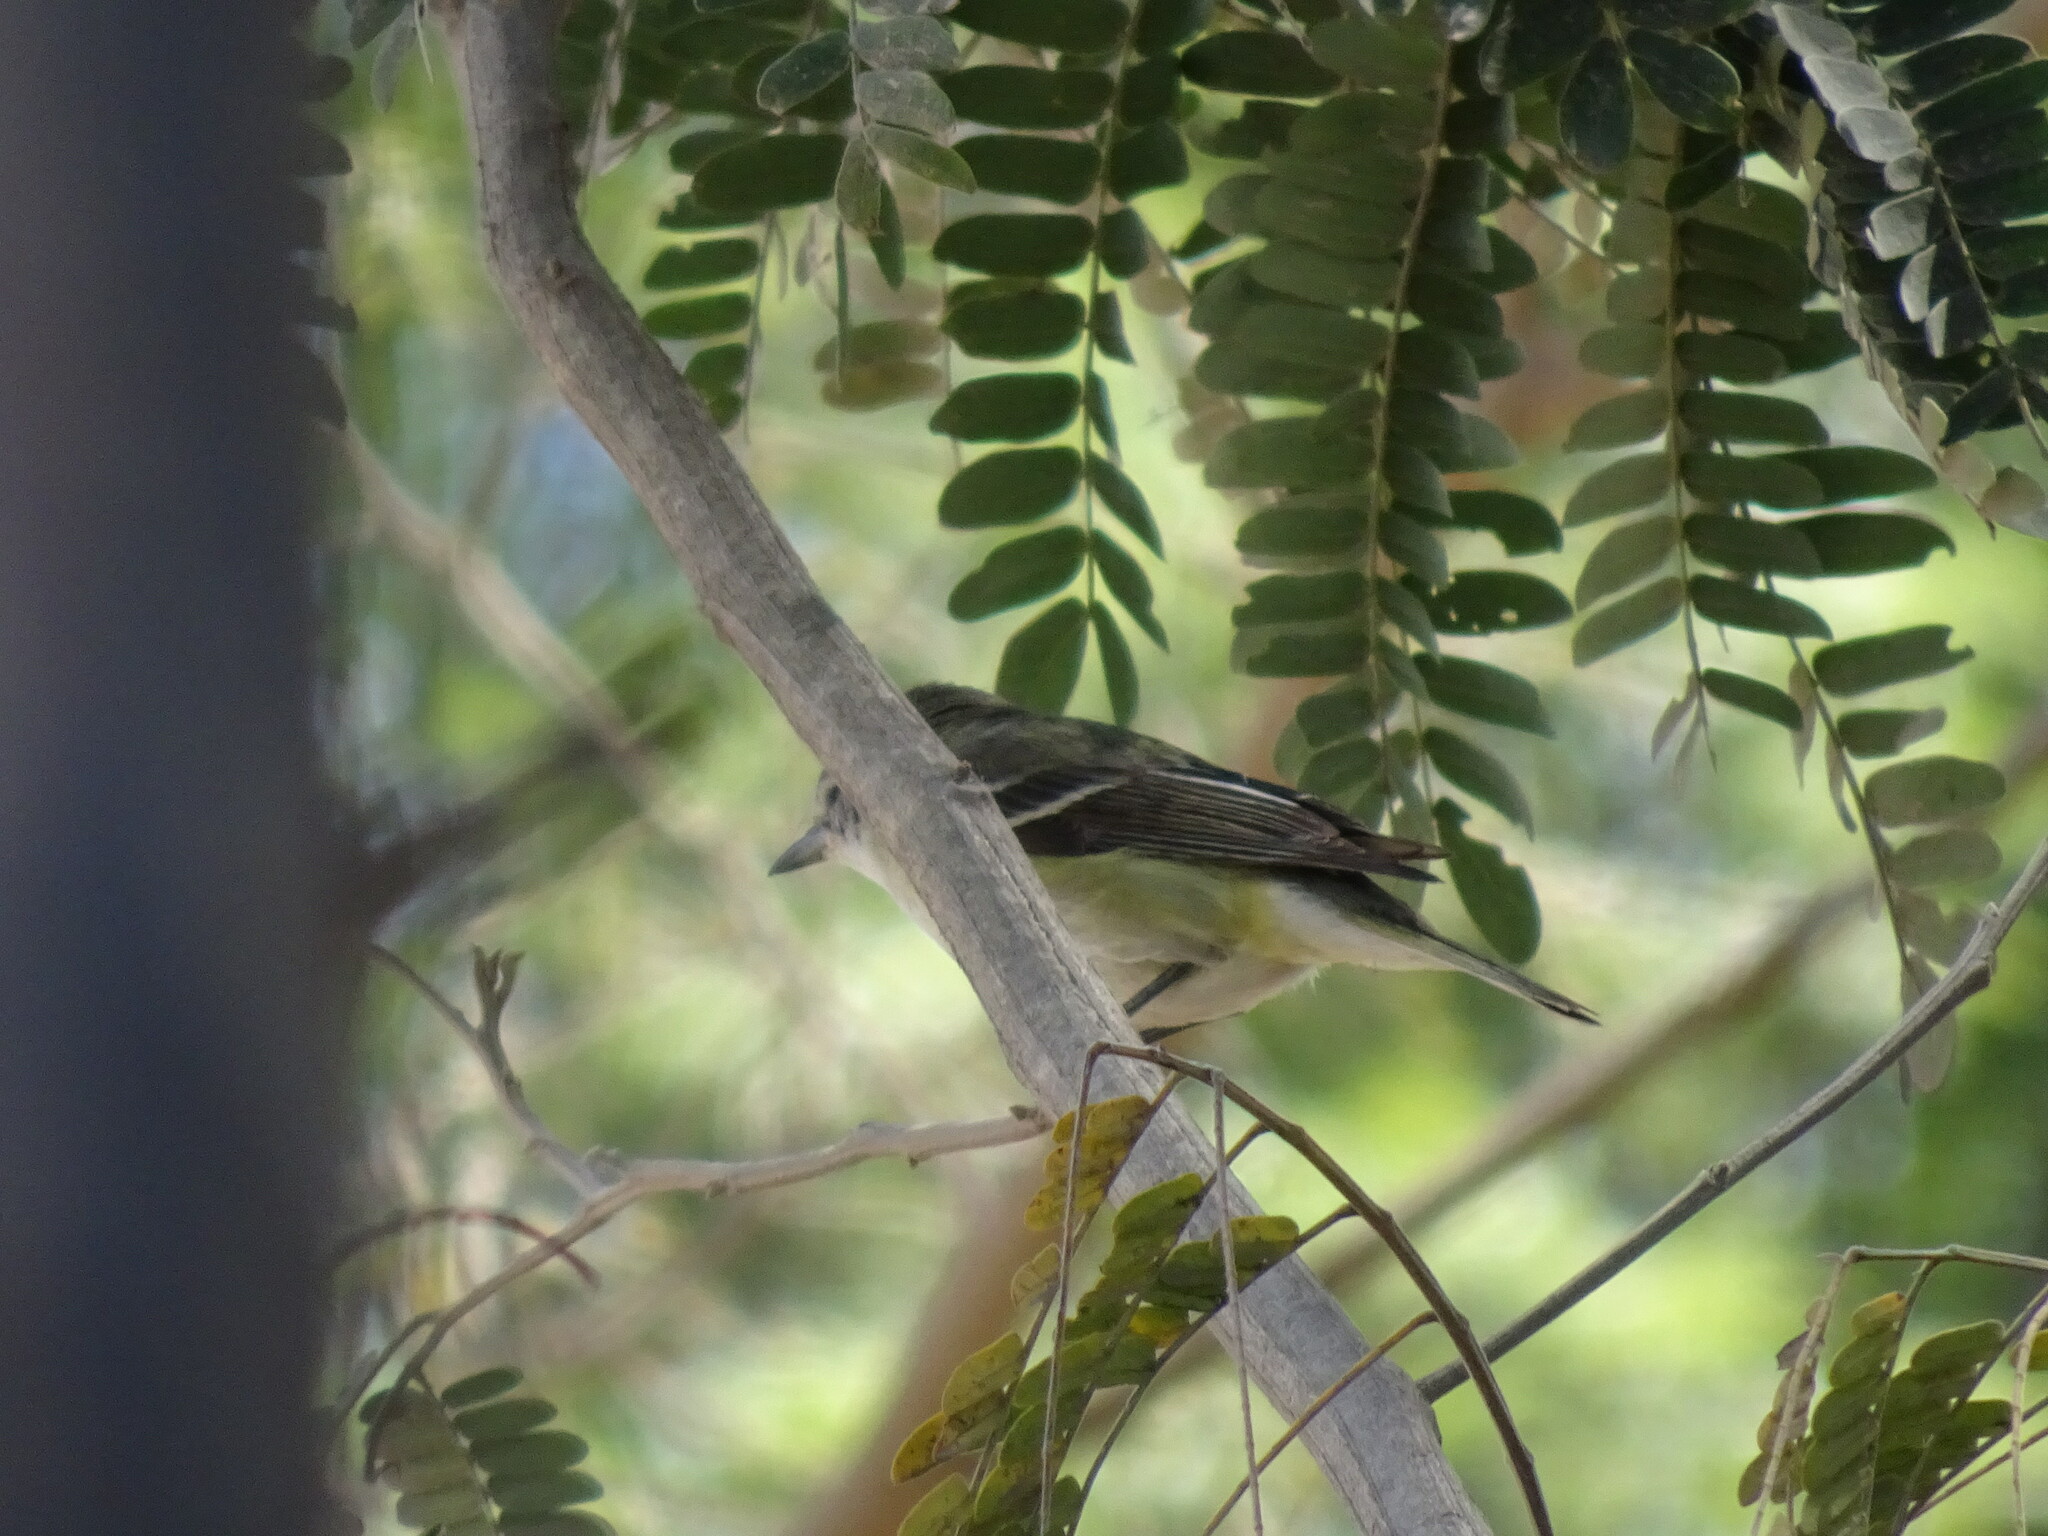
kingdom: Animalia
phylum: Chordata
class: Aves
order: Passeriformes
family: Vireonidae
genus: Vireo
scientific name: Vireo cassinii
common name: Cassin's vireo
